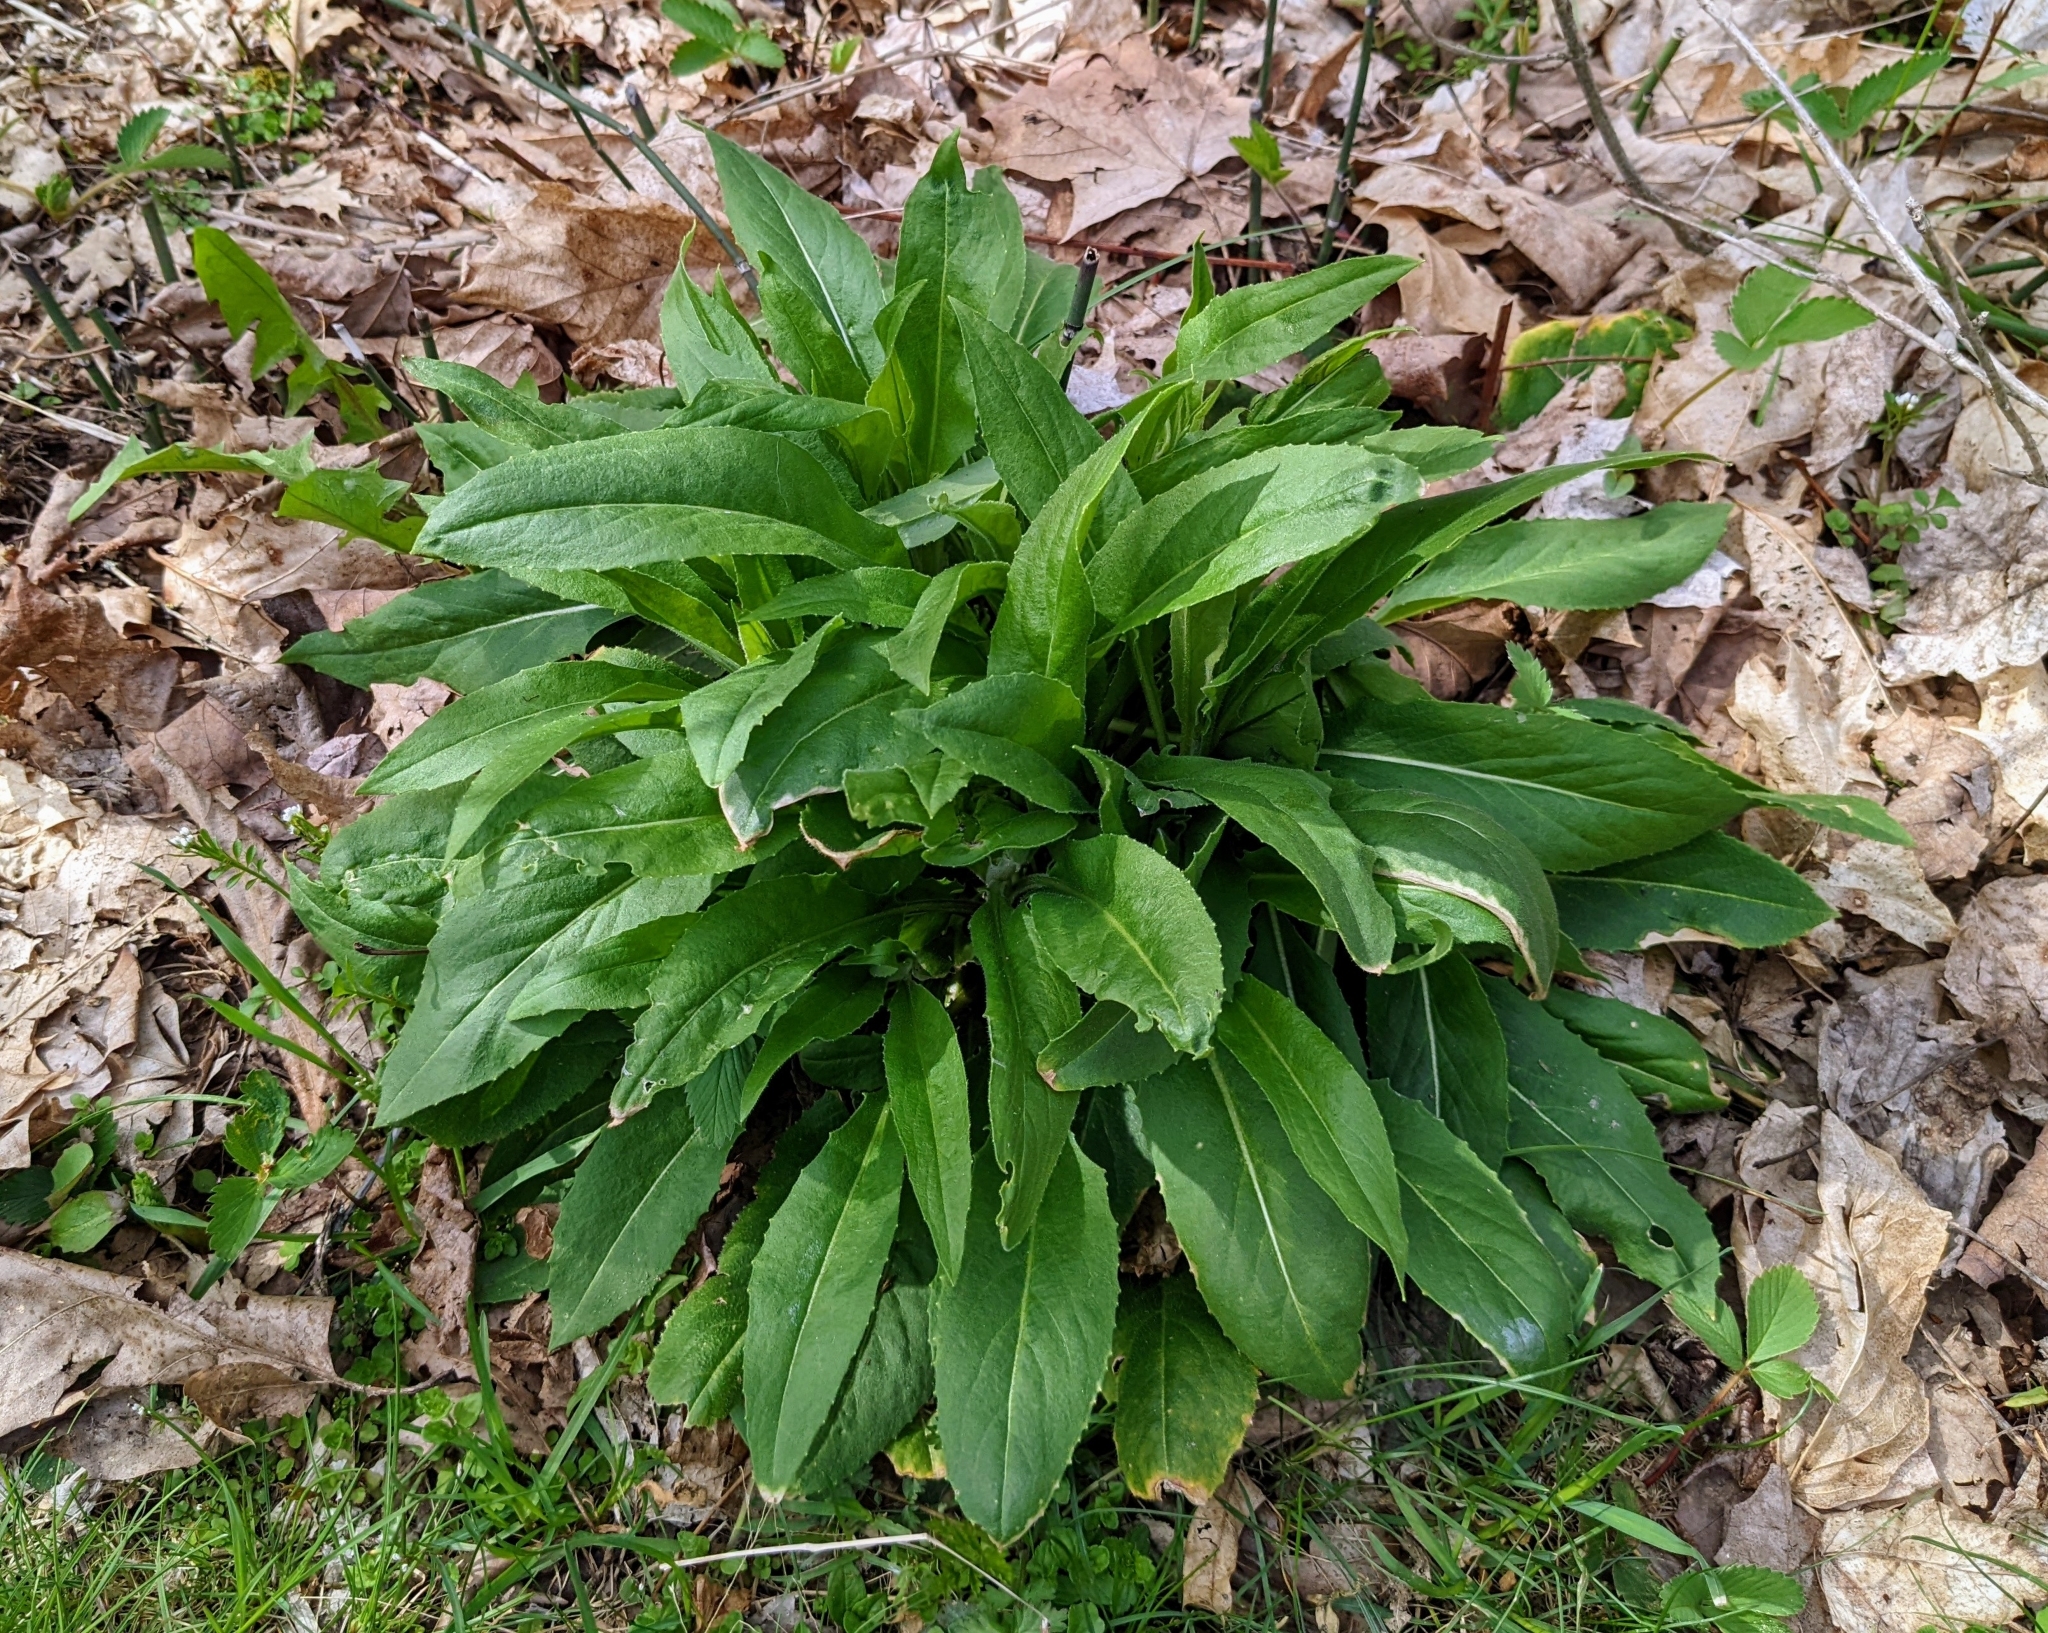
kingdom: Plantae
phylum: Tracheophyta
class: Magnoliopsida
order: Brassicales
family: Brassicaceae
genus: Hesperis
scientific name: Hesperis matronalis
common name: Dame's-violet
